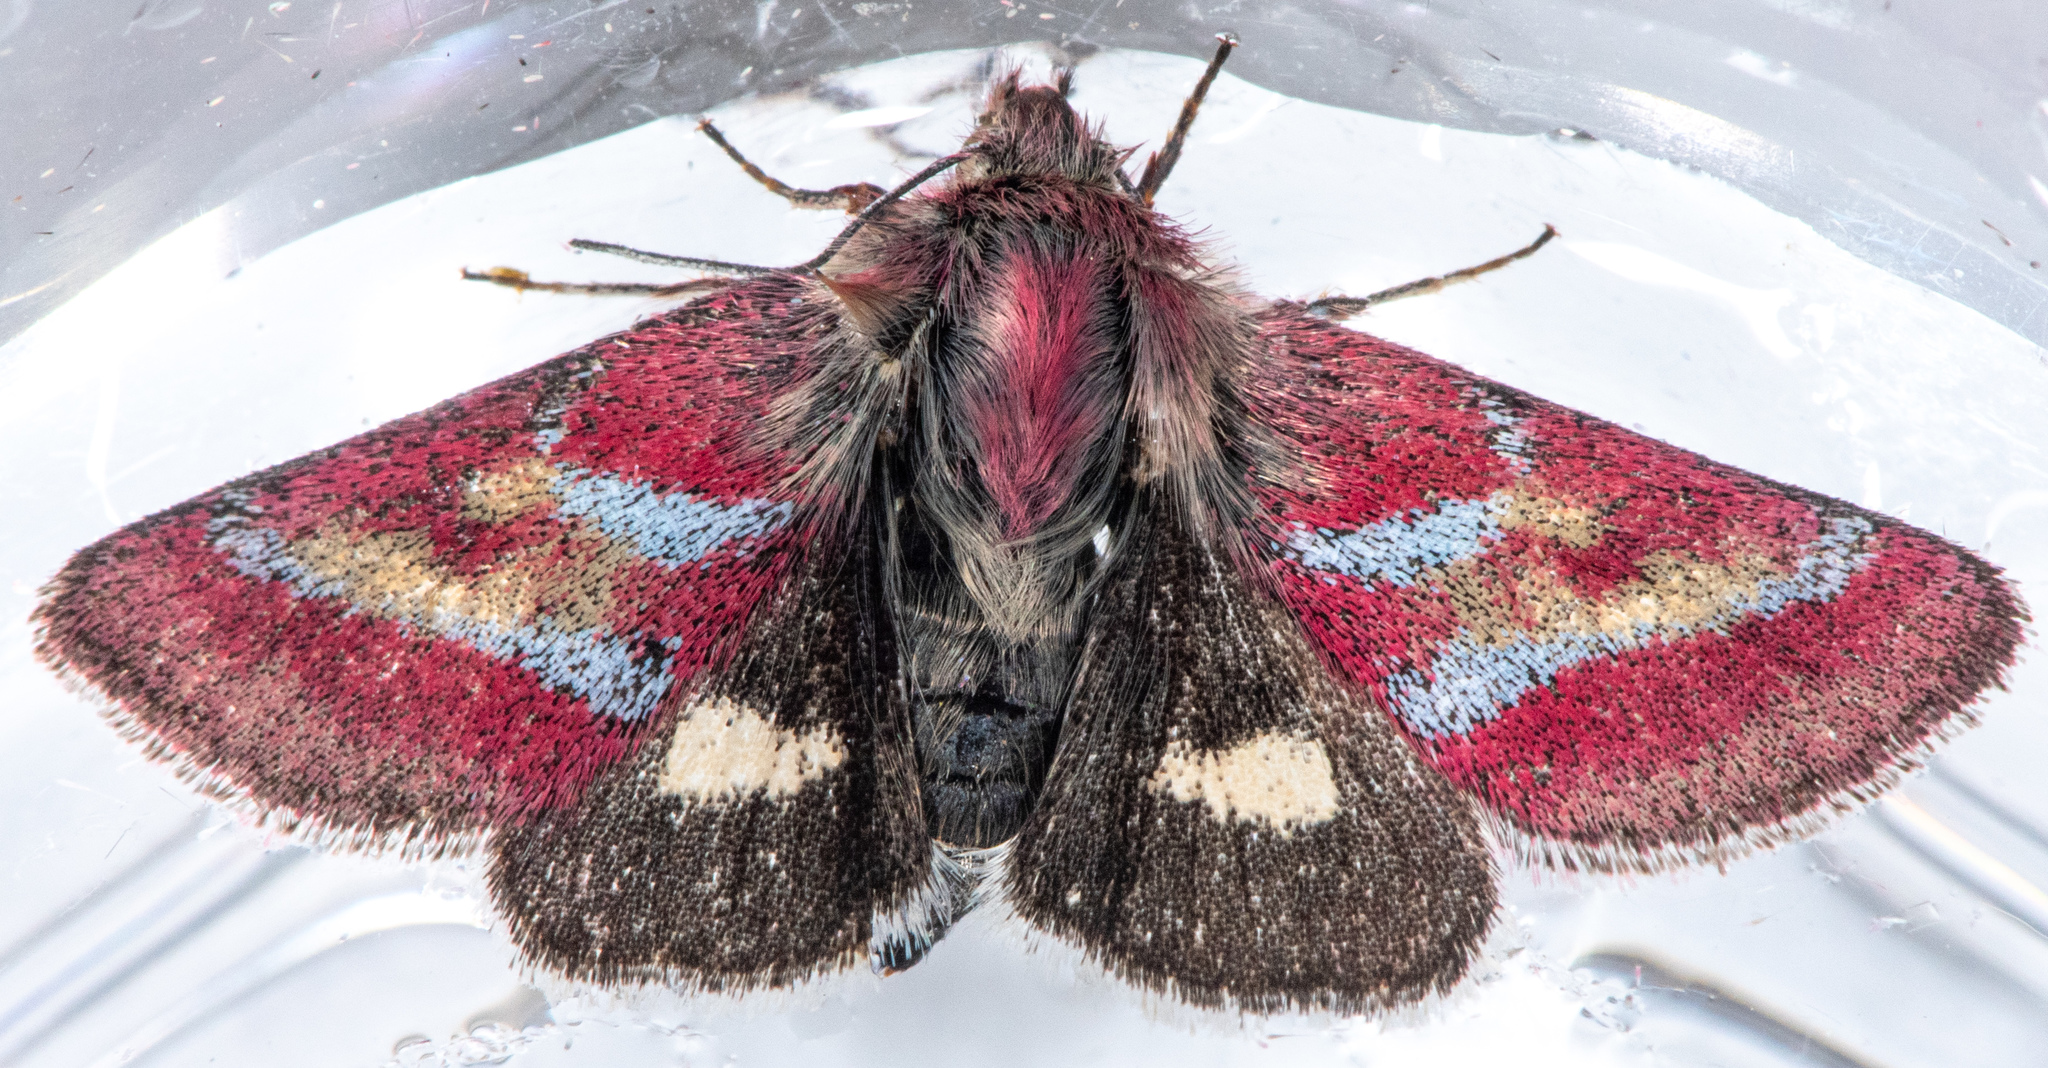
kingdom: Animalia
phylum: Arthropoda
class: Insecta
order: Lepidoptera
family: Noctuidae
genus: Schinia
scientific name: Schinia pulchripennis
